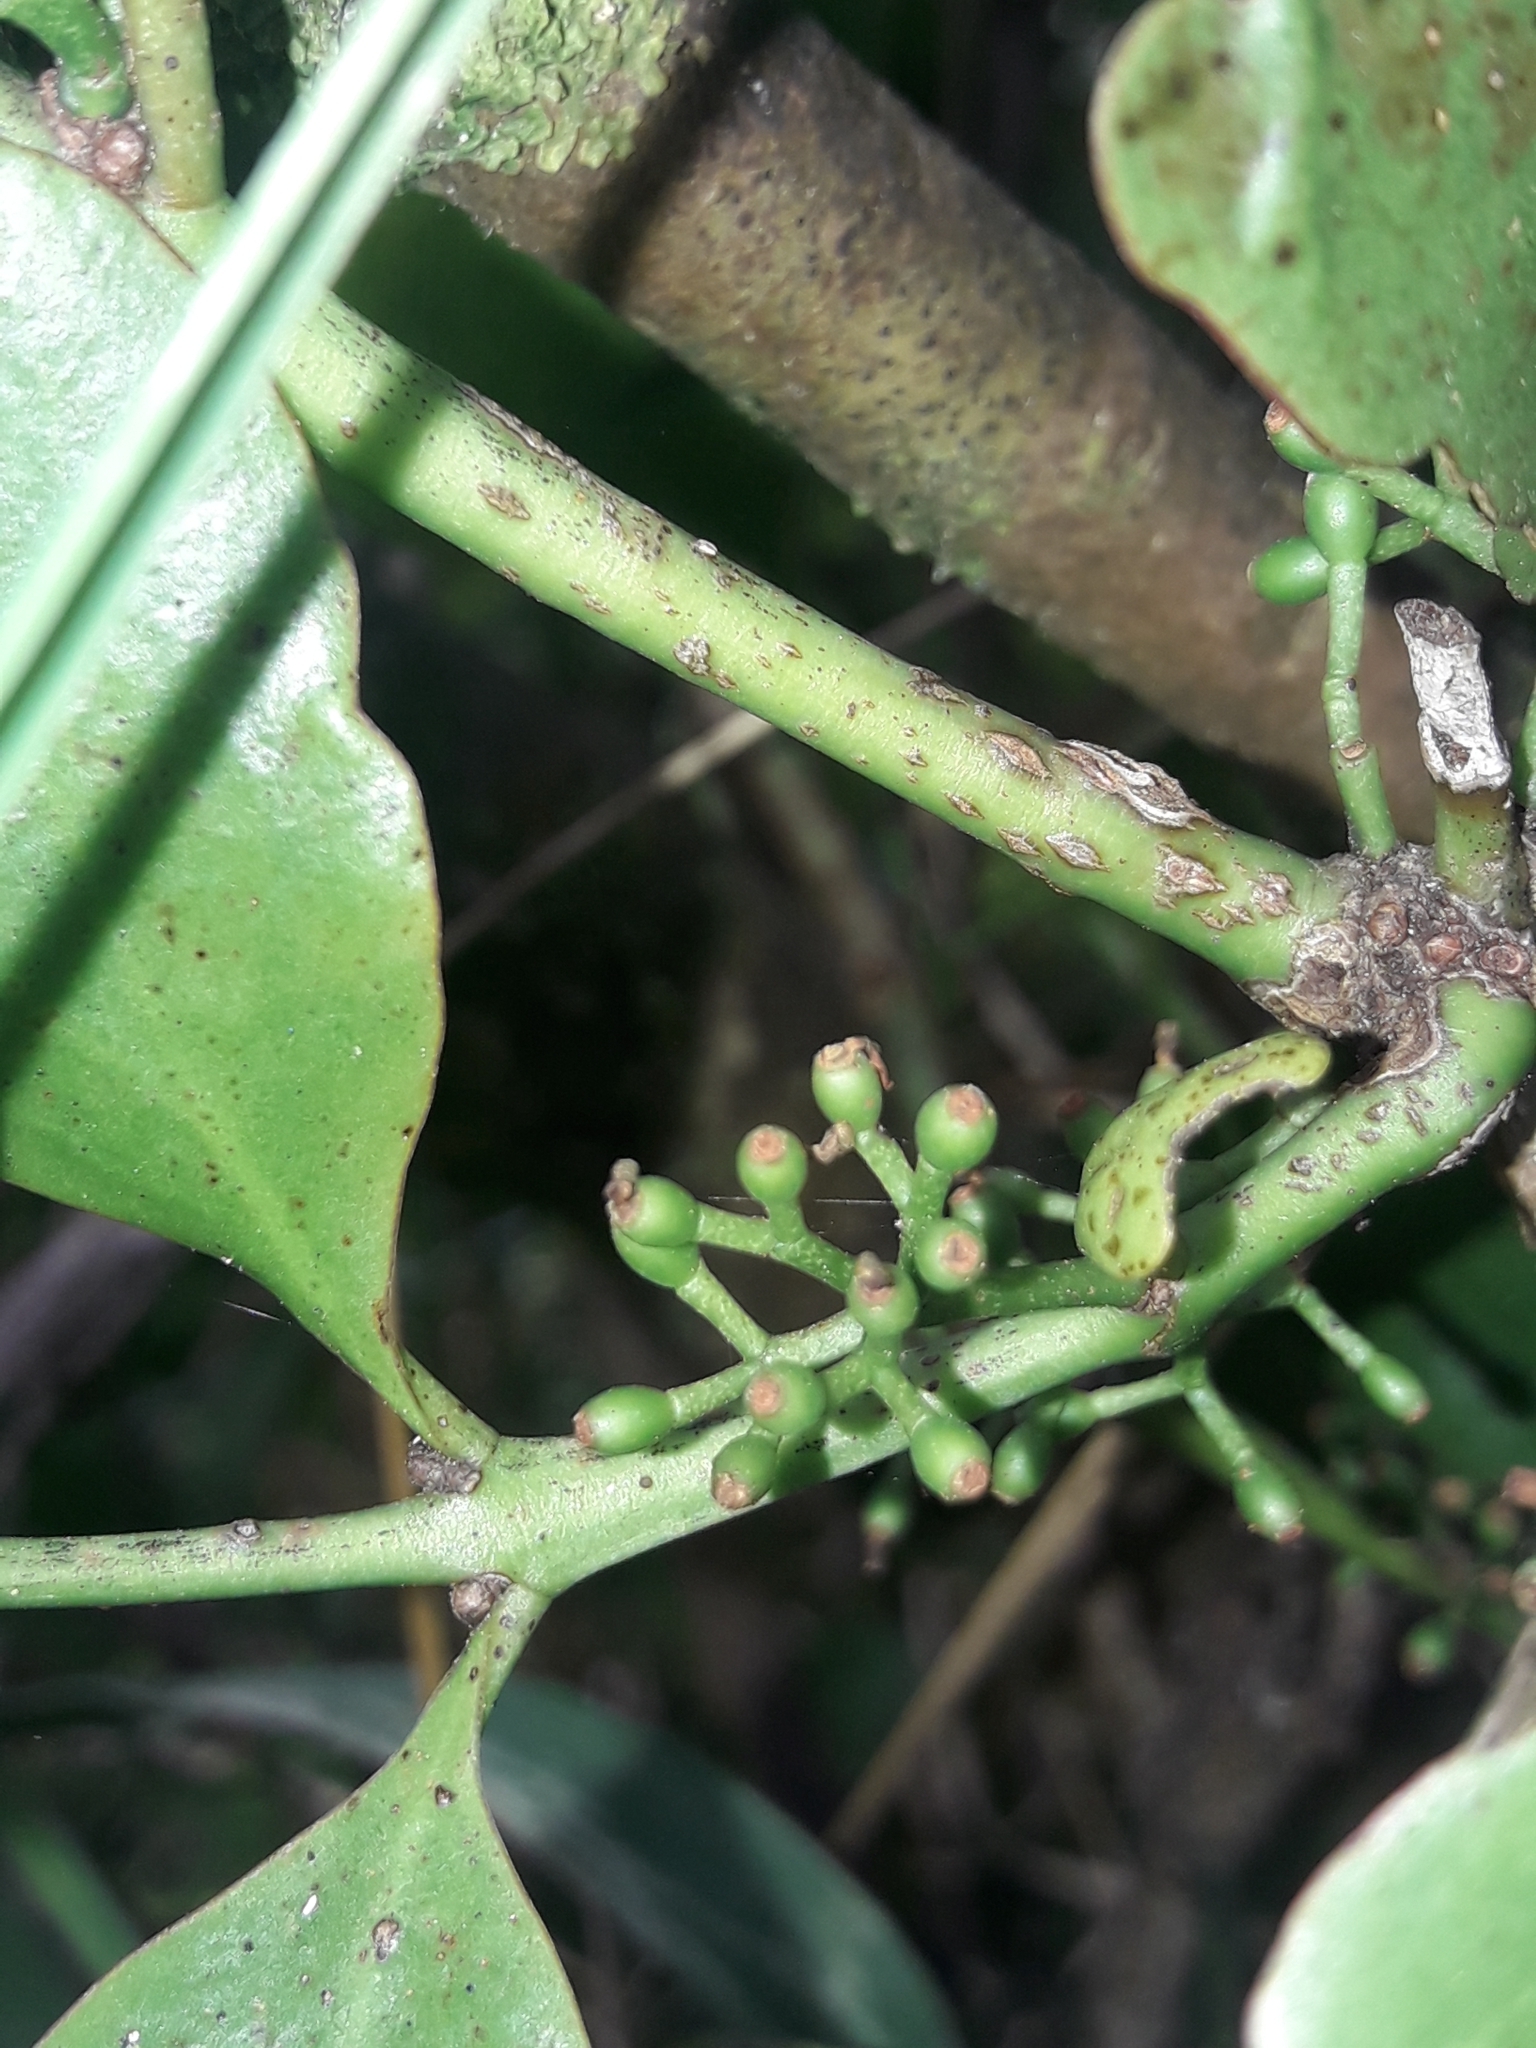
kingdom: Plantae
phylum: Tracheophyta
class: Magnoliopsida
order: Santalales
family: Loranthaceae
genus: Ileostylus
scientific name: Ileostylus micranthus
